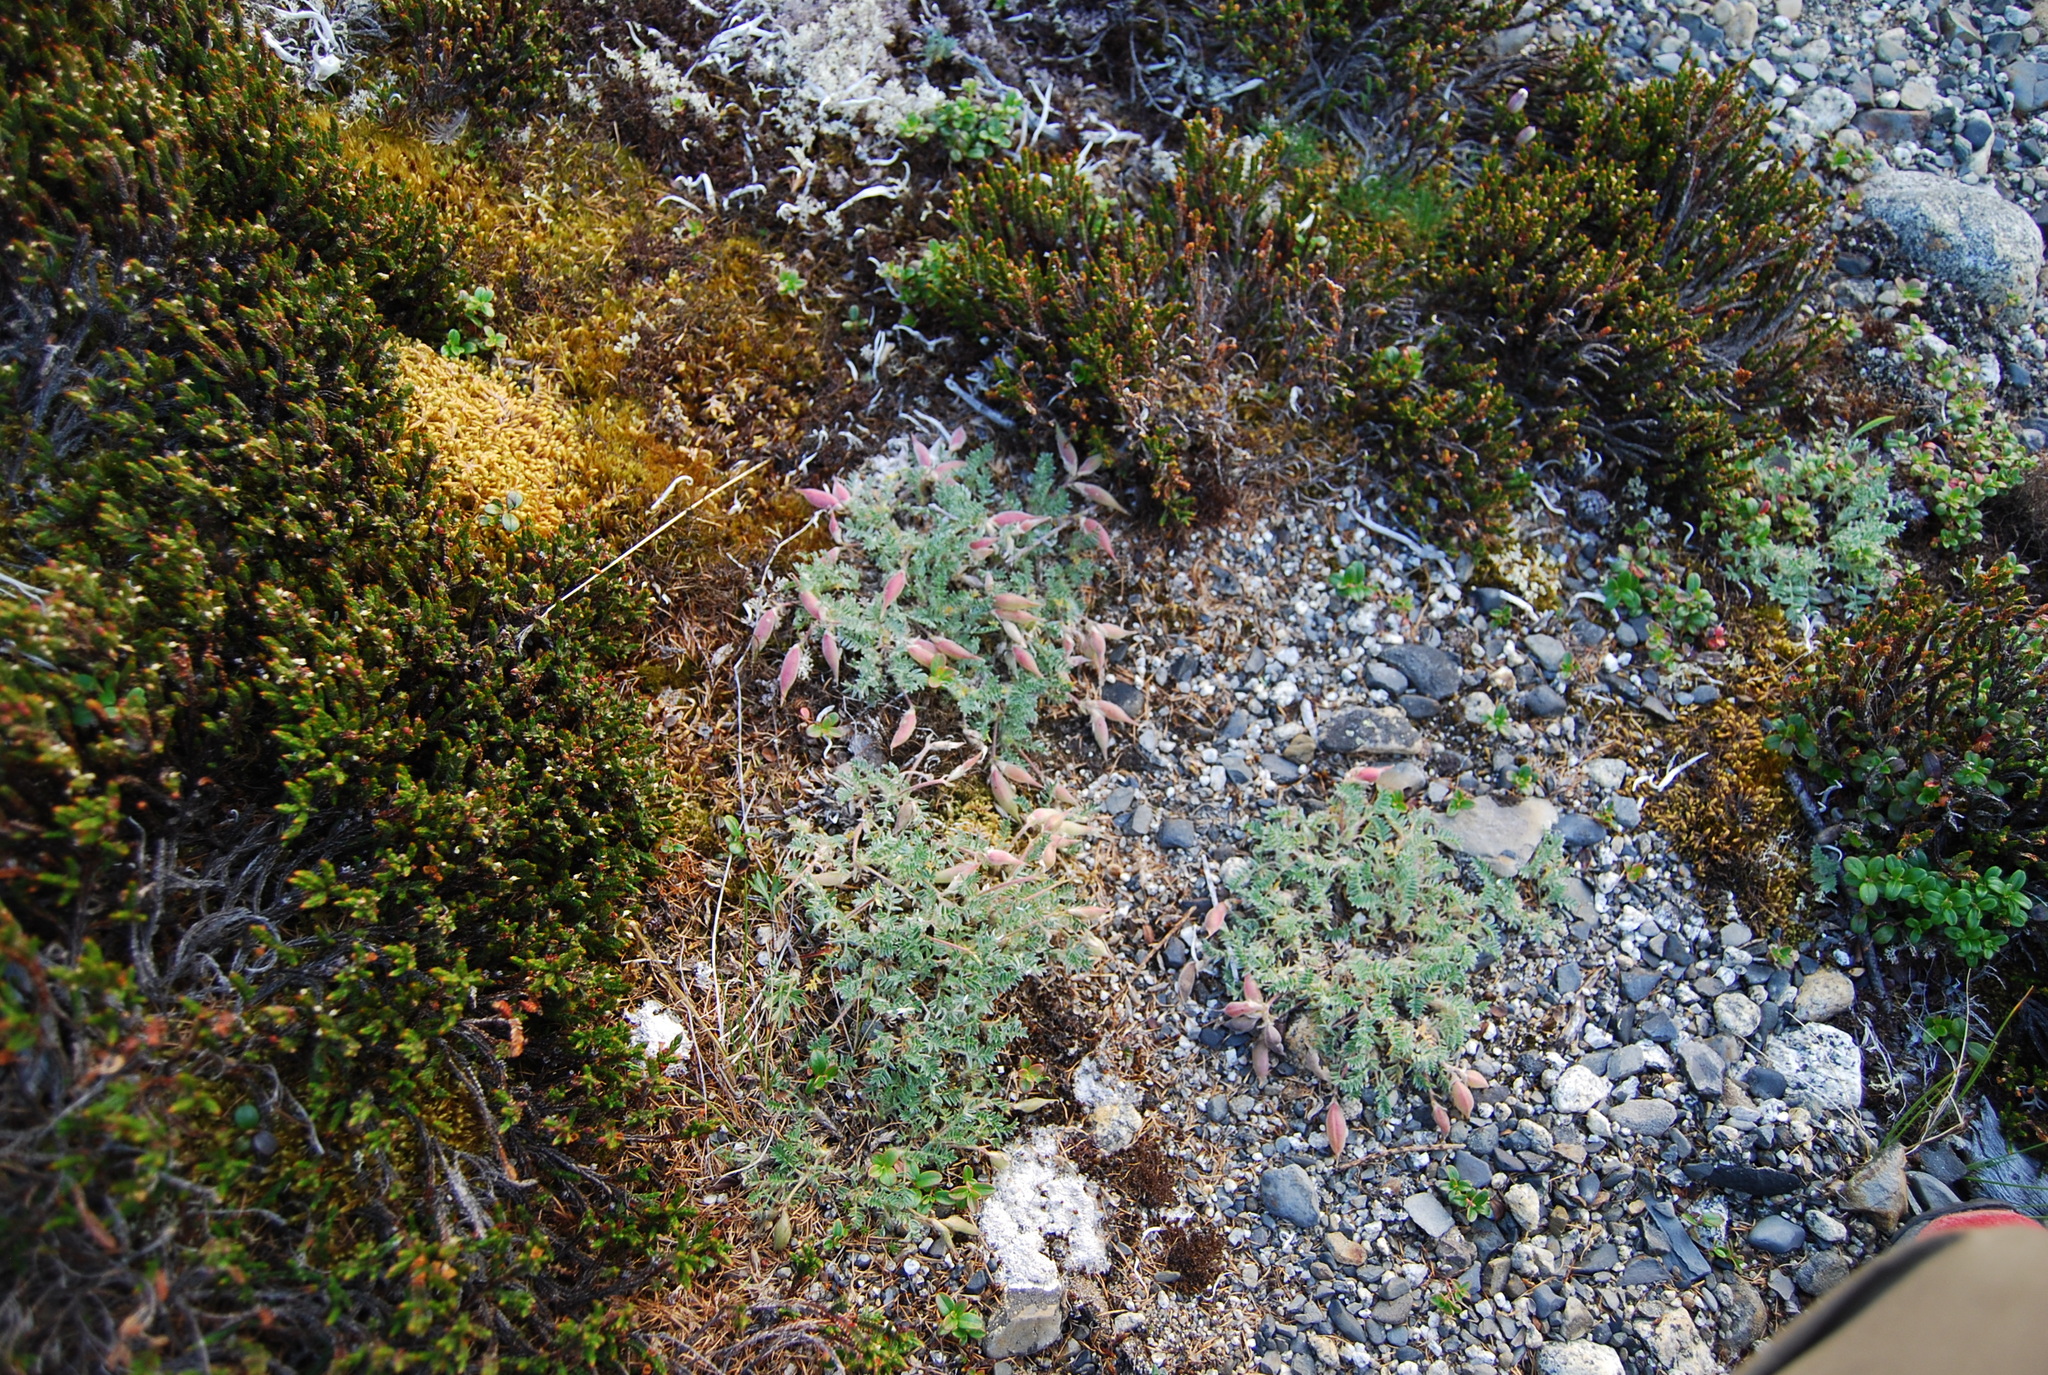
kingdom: Plantae
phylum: Tracheophyta
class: Magnoliopsida
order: Fabales
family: Fabaceae
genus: Oxytropis
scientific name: Oxytropis susumanica
